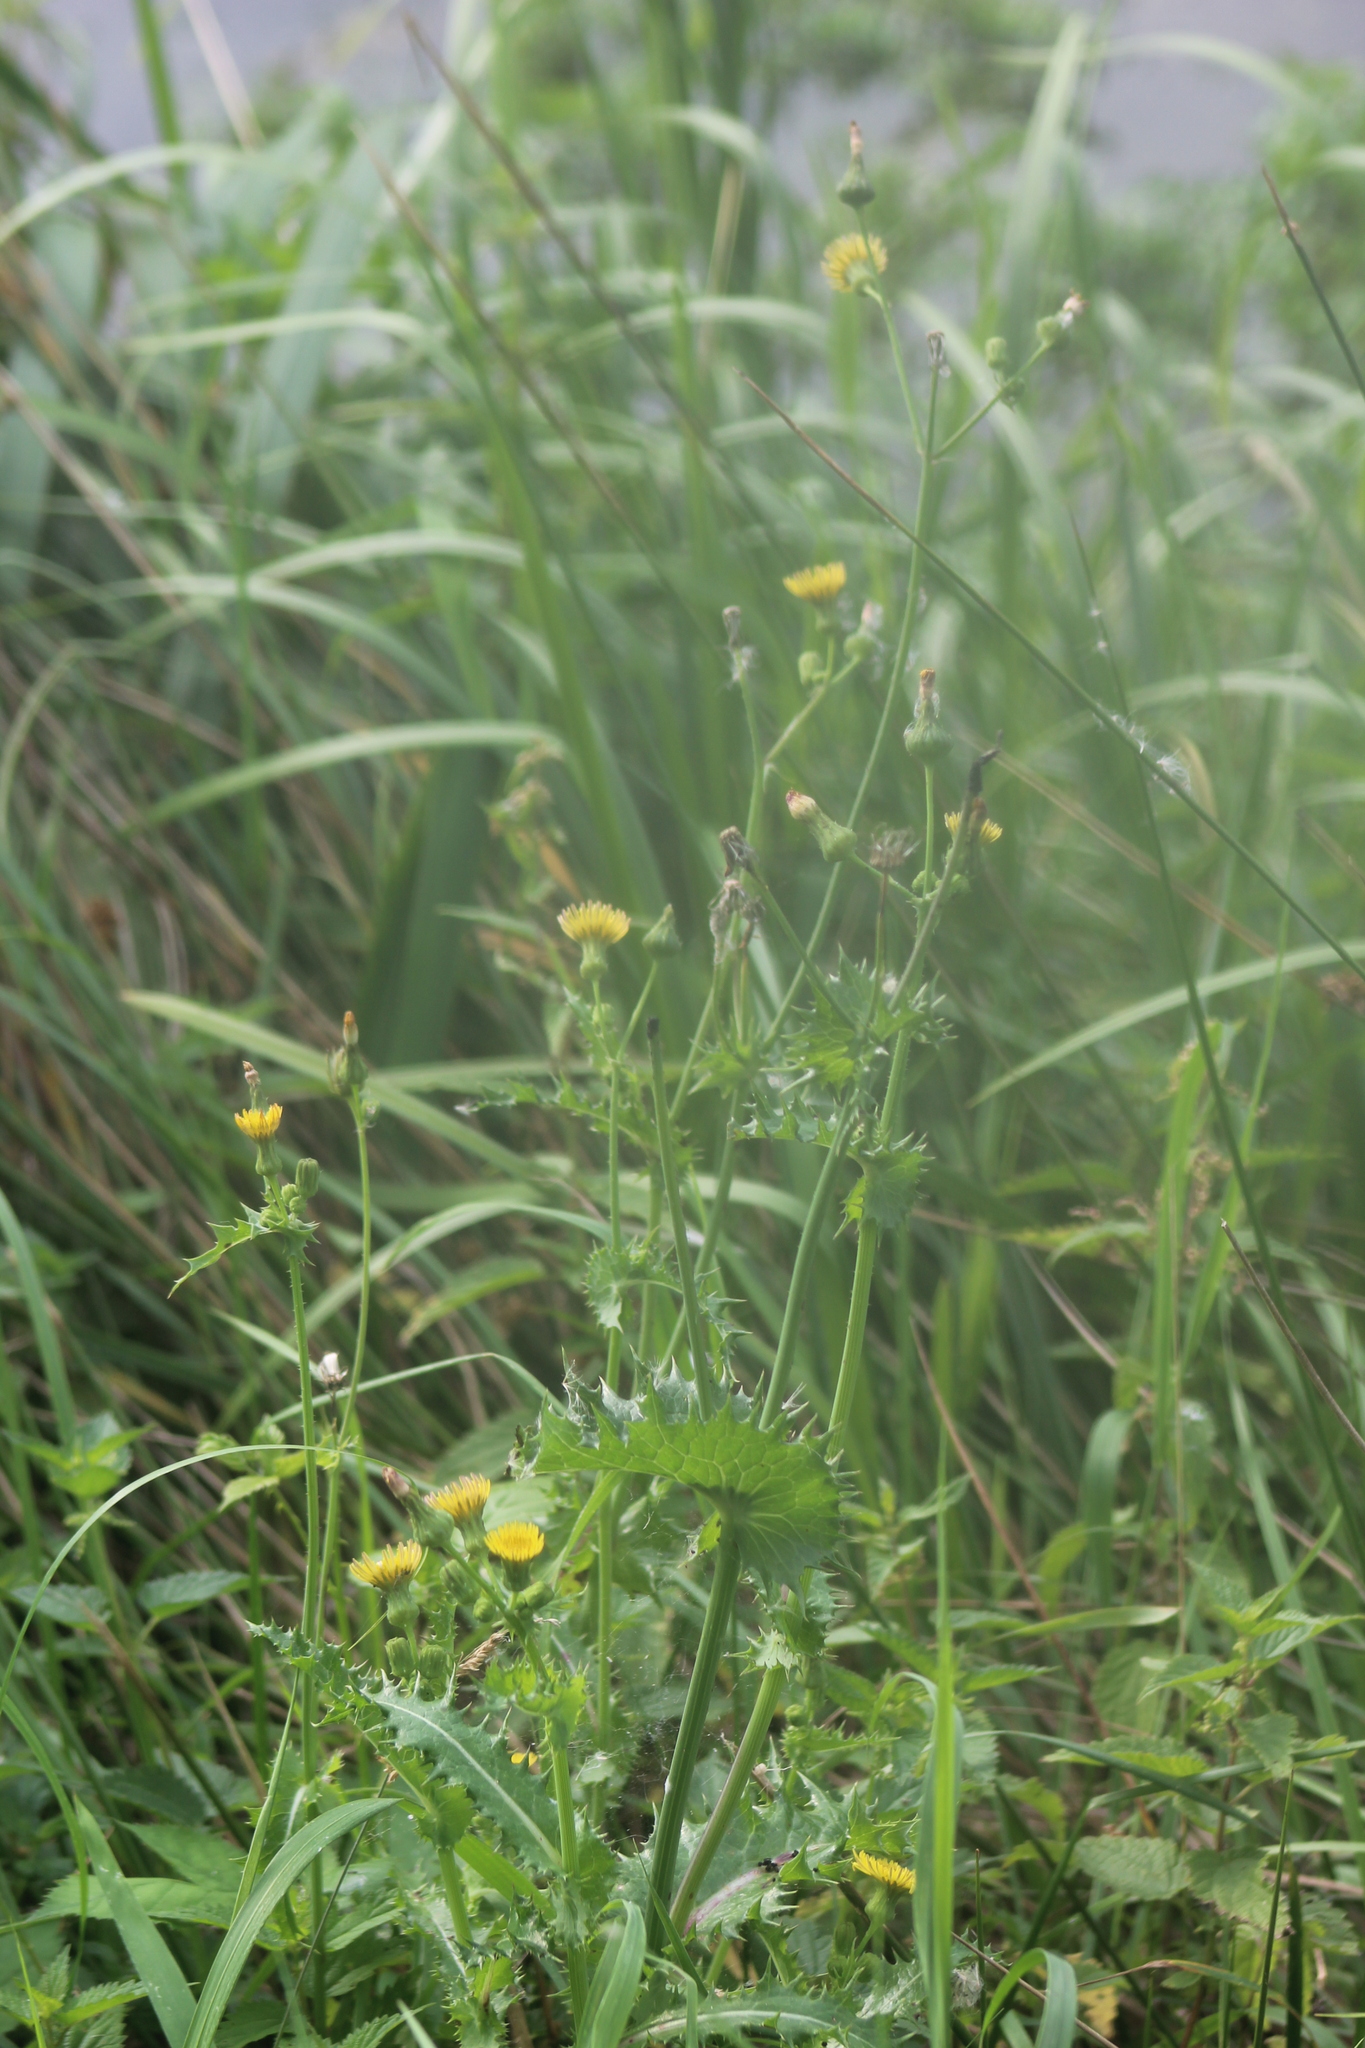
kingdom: Plantae
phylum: Tracheophyta
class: Magnoliopsida
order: Asterales
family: Asteraceae
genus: Sonchus
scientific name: Sonchus asper
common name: Prickly sow-thistle
